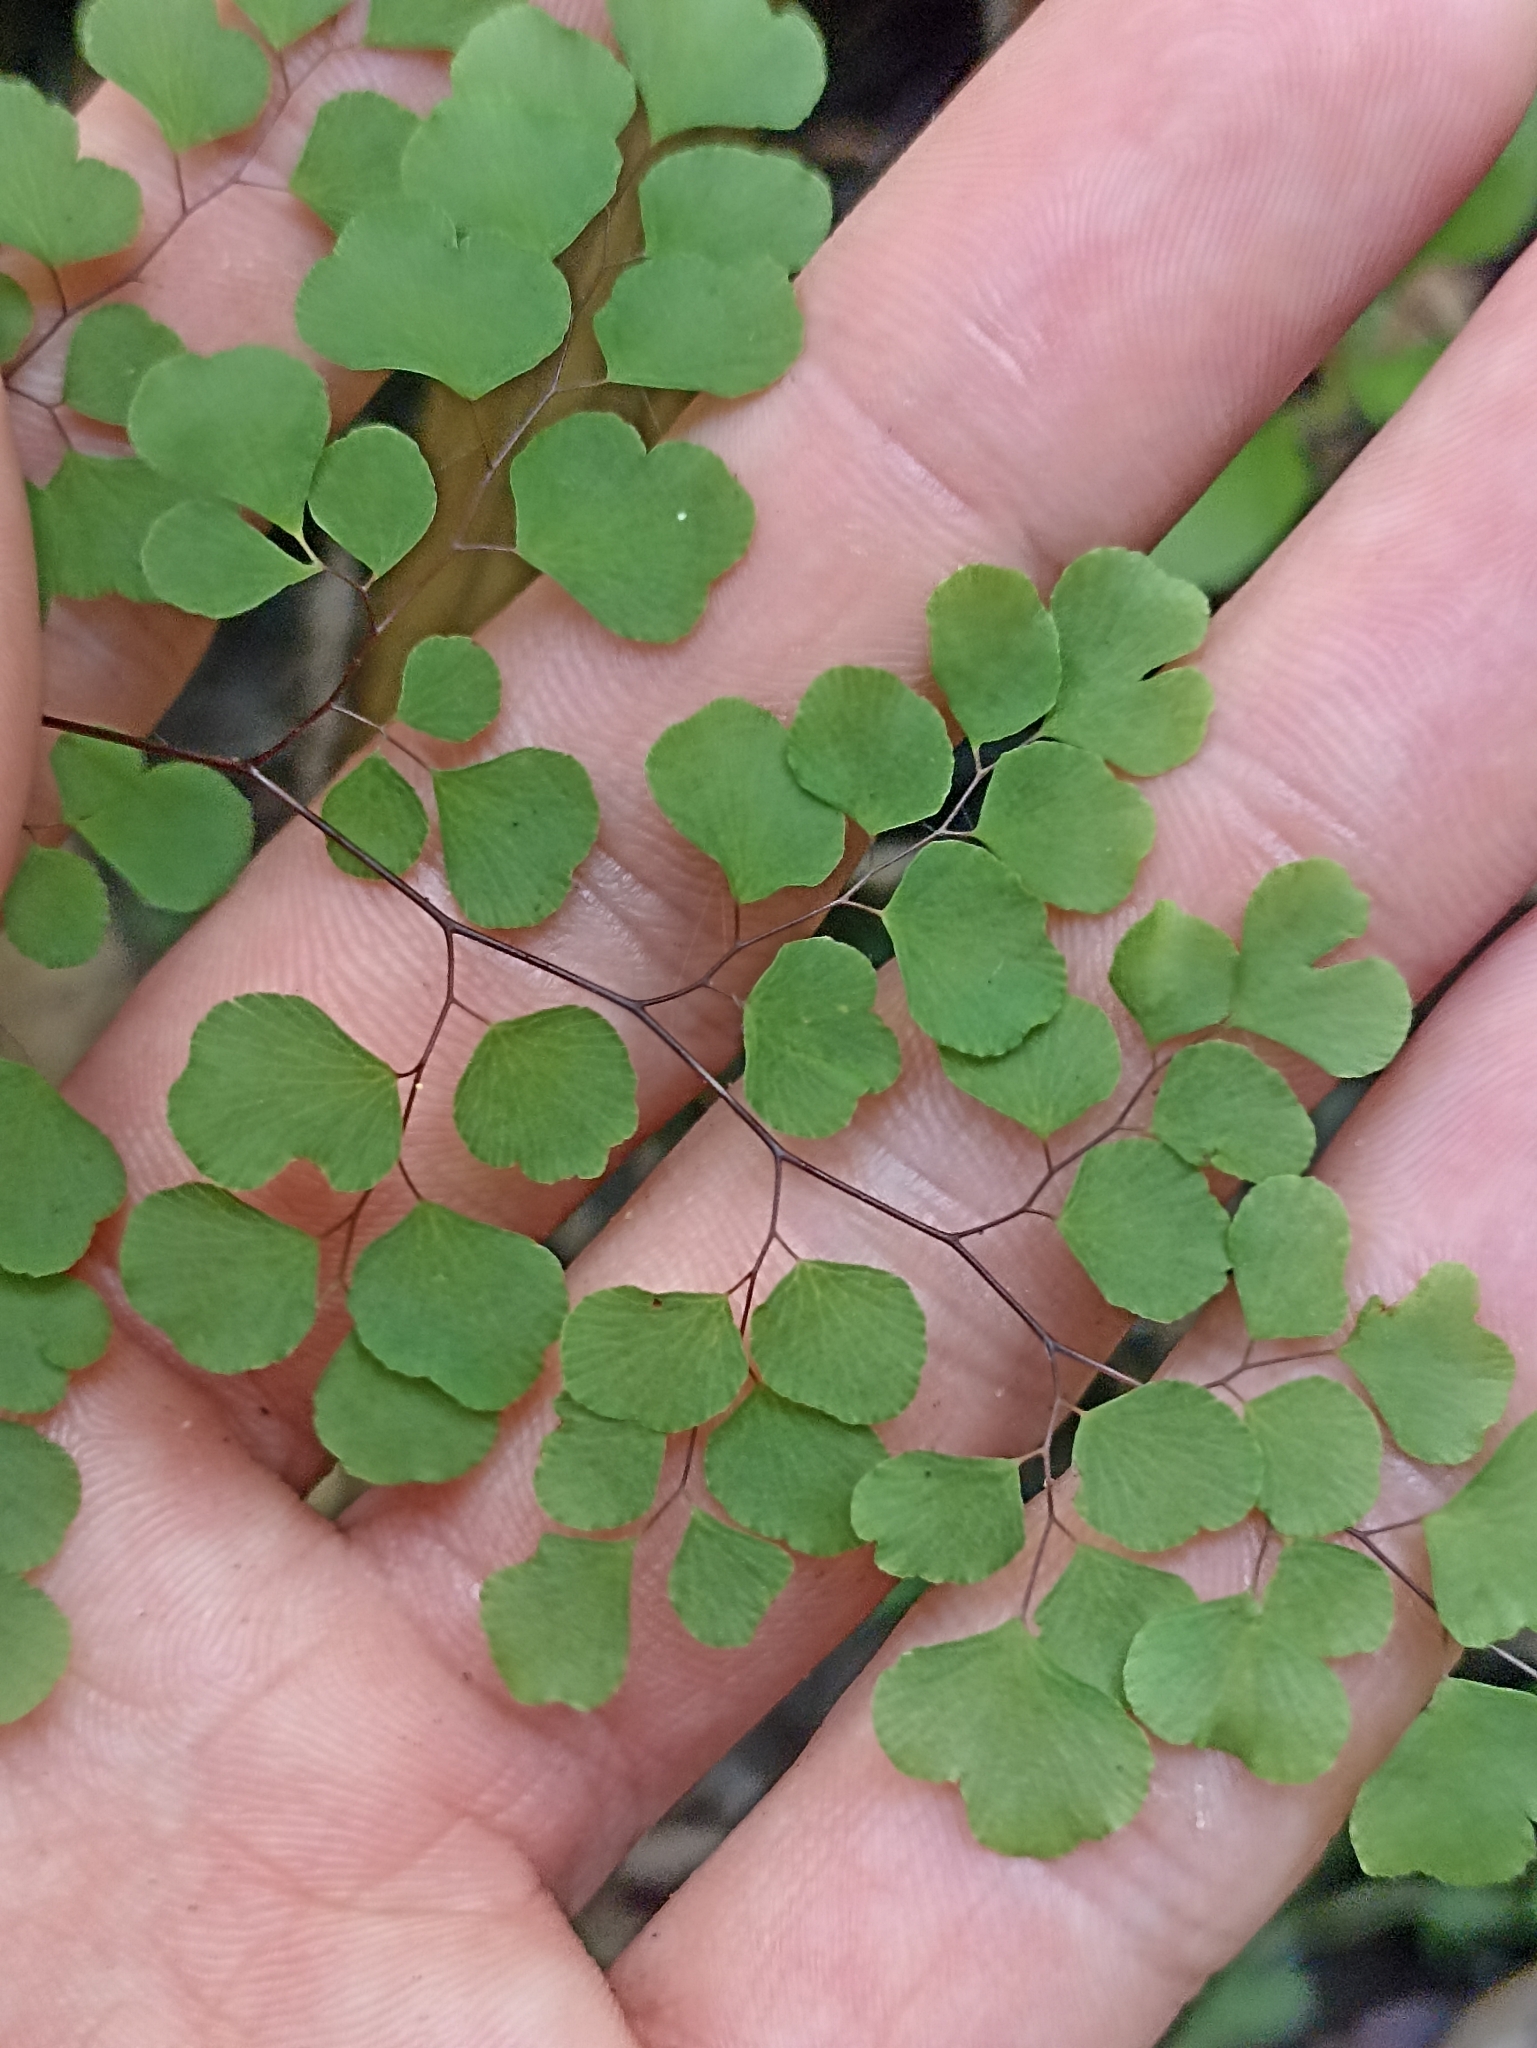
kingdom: Plantae
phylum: Tracheophyta
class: Polypodiopsida
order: Polypodiales
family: Pteridaceae
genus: Adiantum
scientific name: Adiantum aethiopicum
